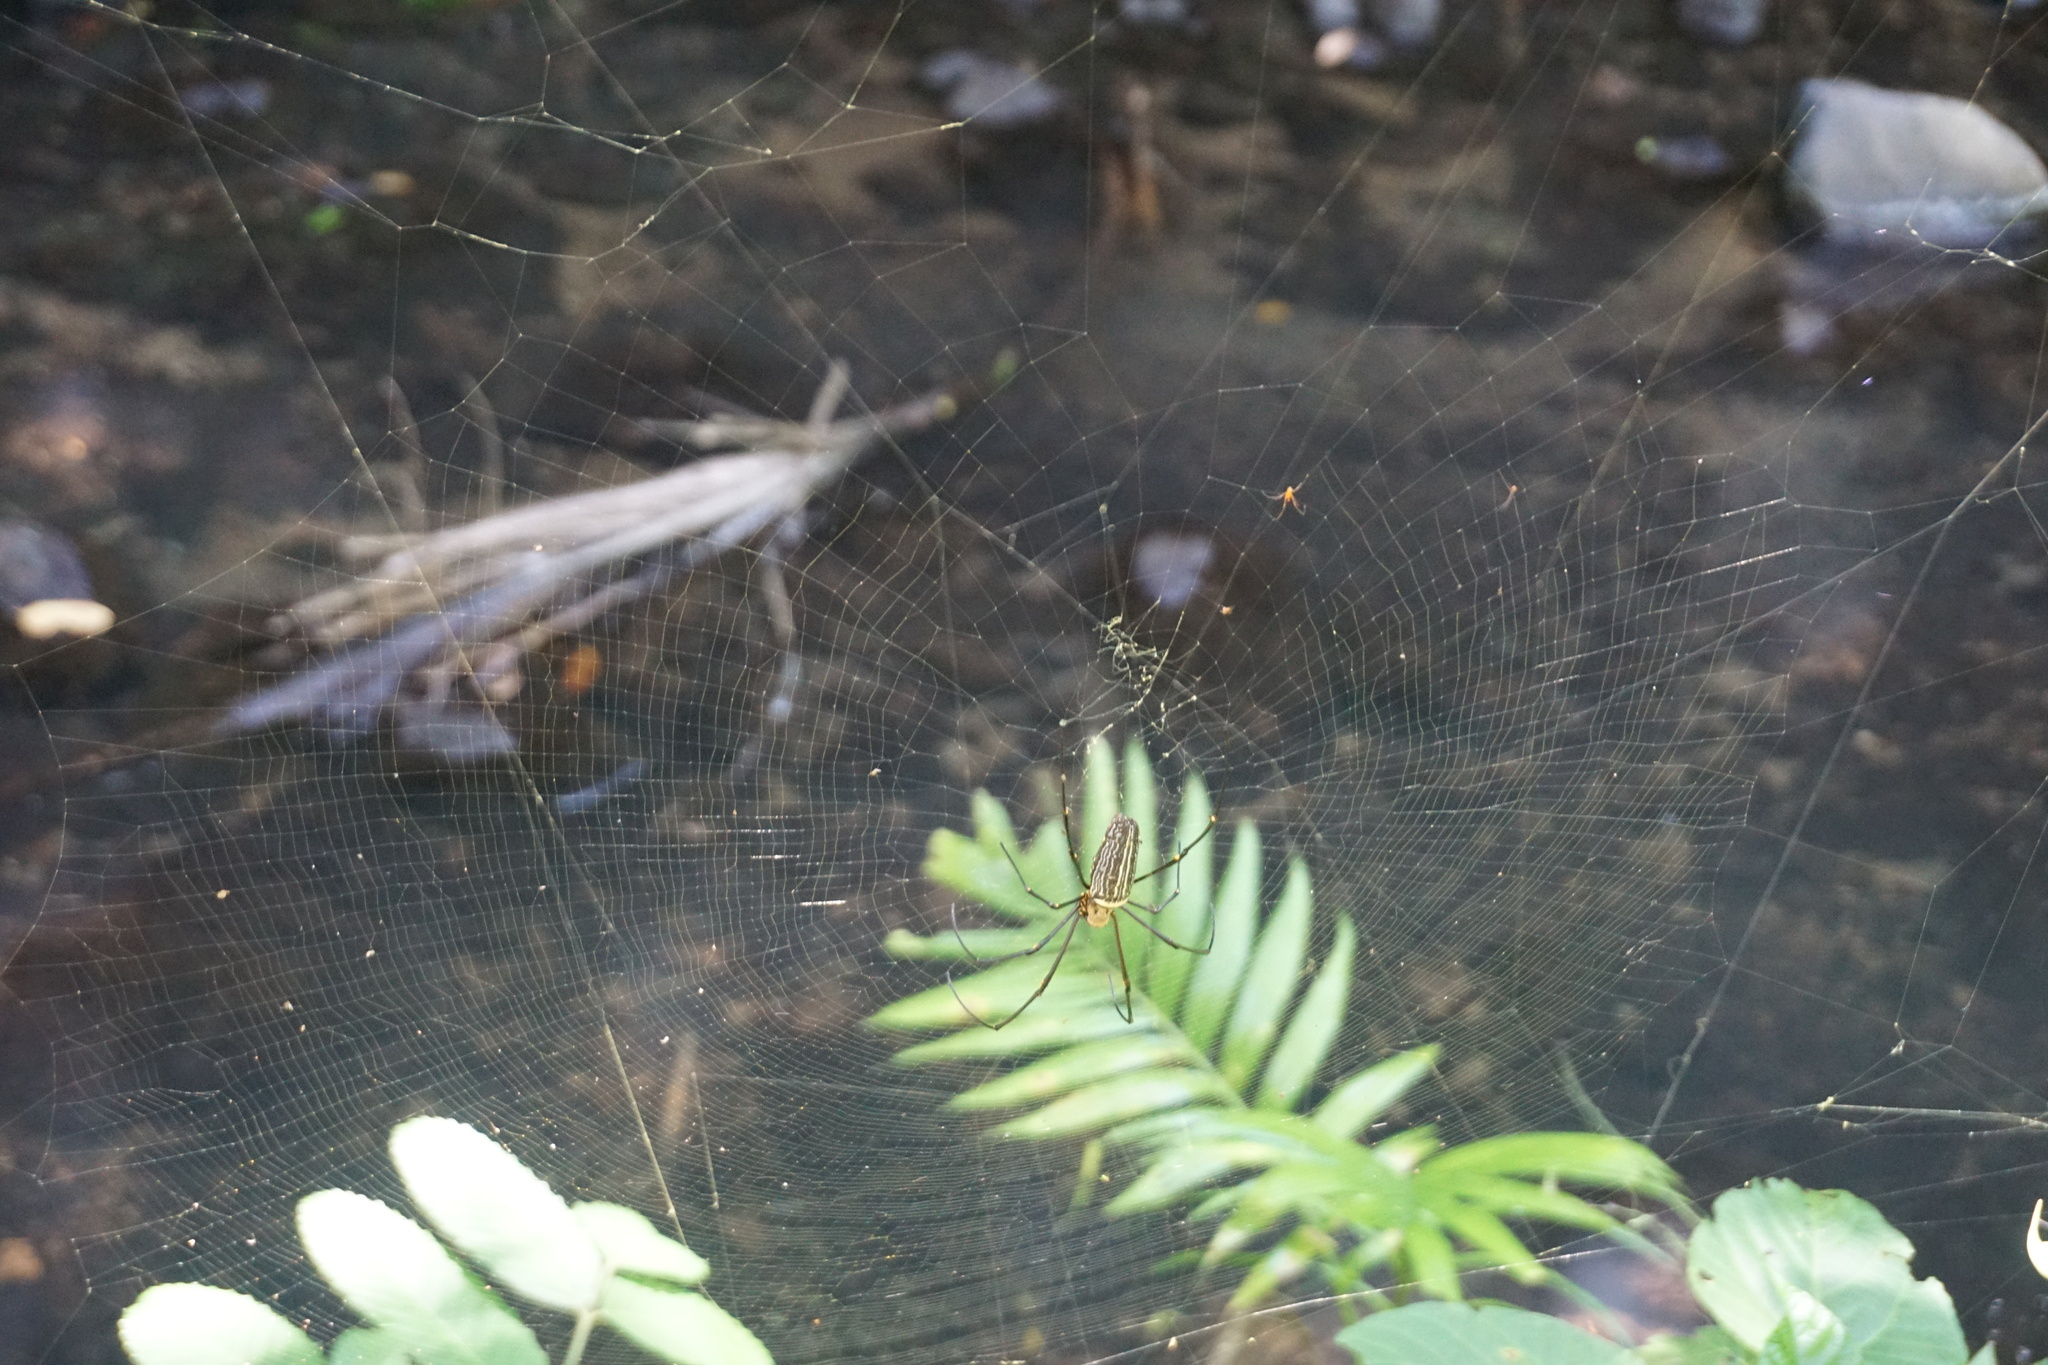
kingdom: Animalia
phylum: Arthropoda
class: Arachnida
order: Araneae
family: Araneidae
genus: Nephila
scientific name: Nephila pilipes
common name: Giant golden orb weaver
